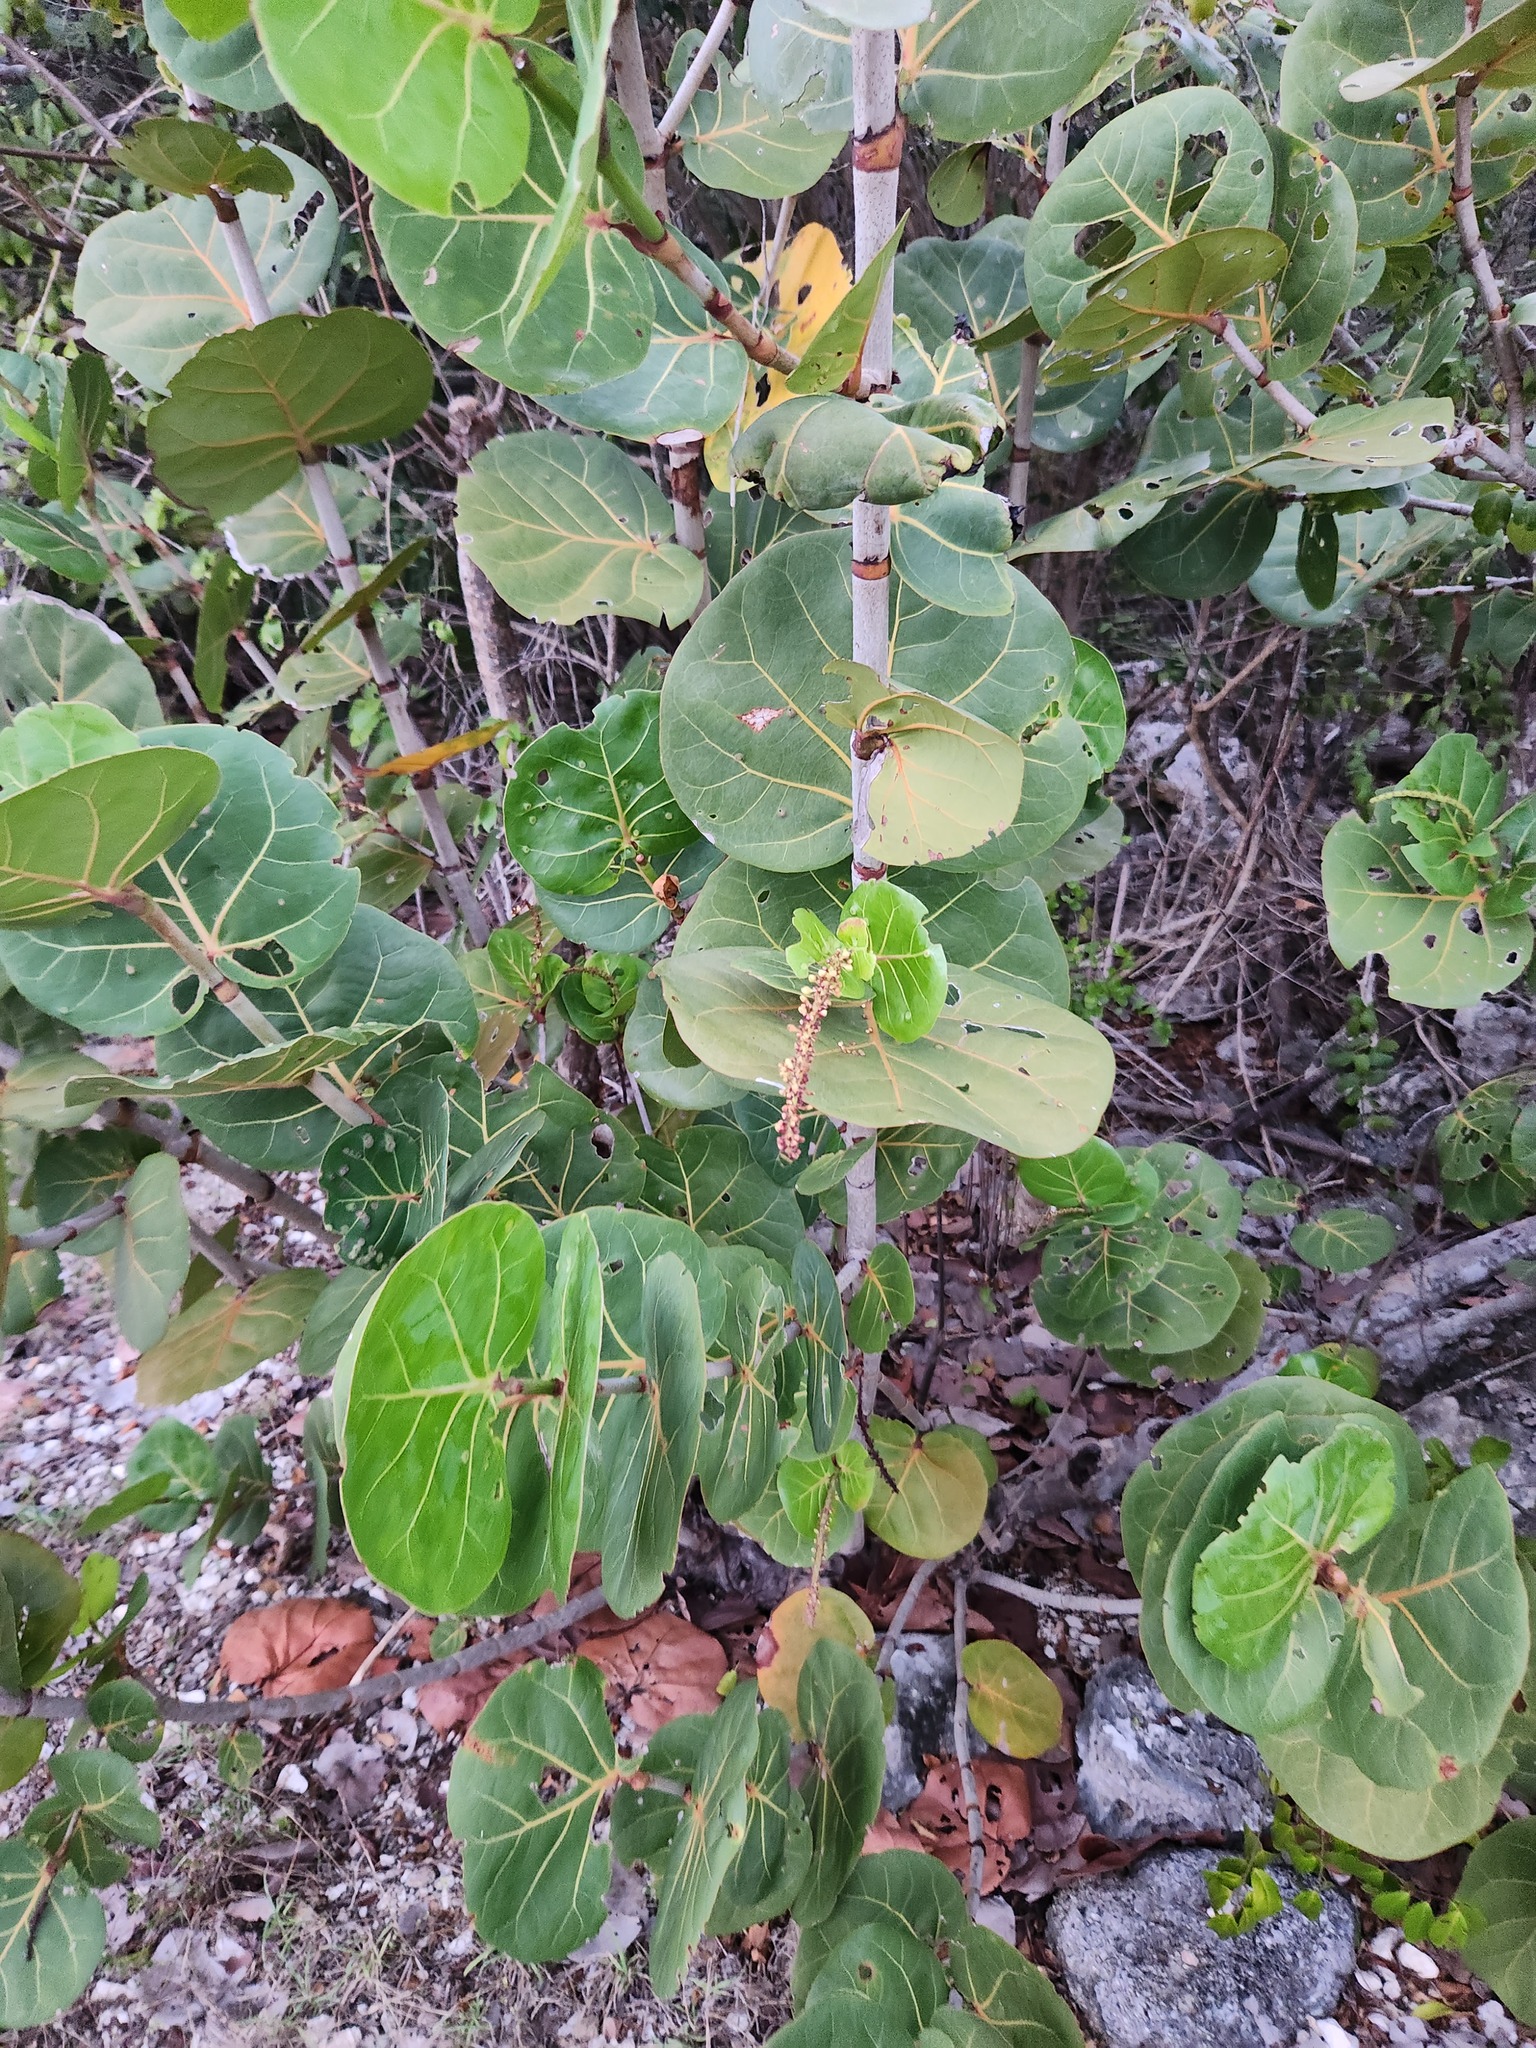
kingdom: Plantae
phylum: Tracheophyta
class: Magnoliopsida
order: Caryophyllales
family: Polygonaceae
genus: Coccoloba
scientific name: Coccoloba uvifera
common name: Seagrape
